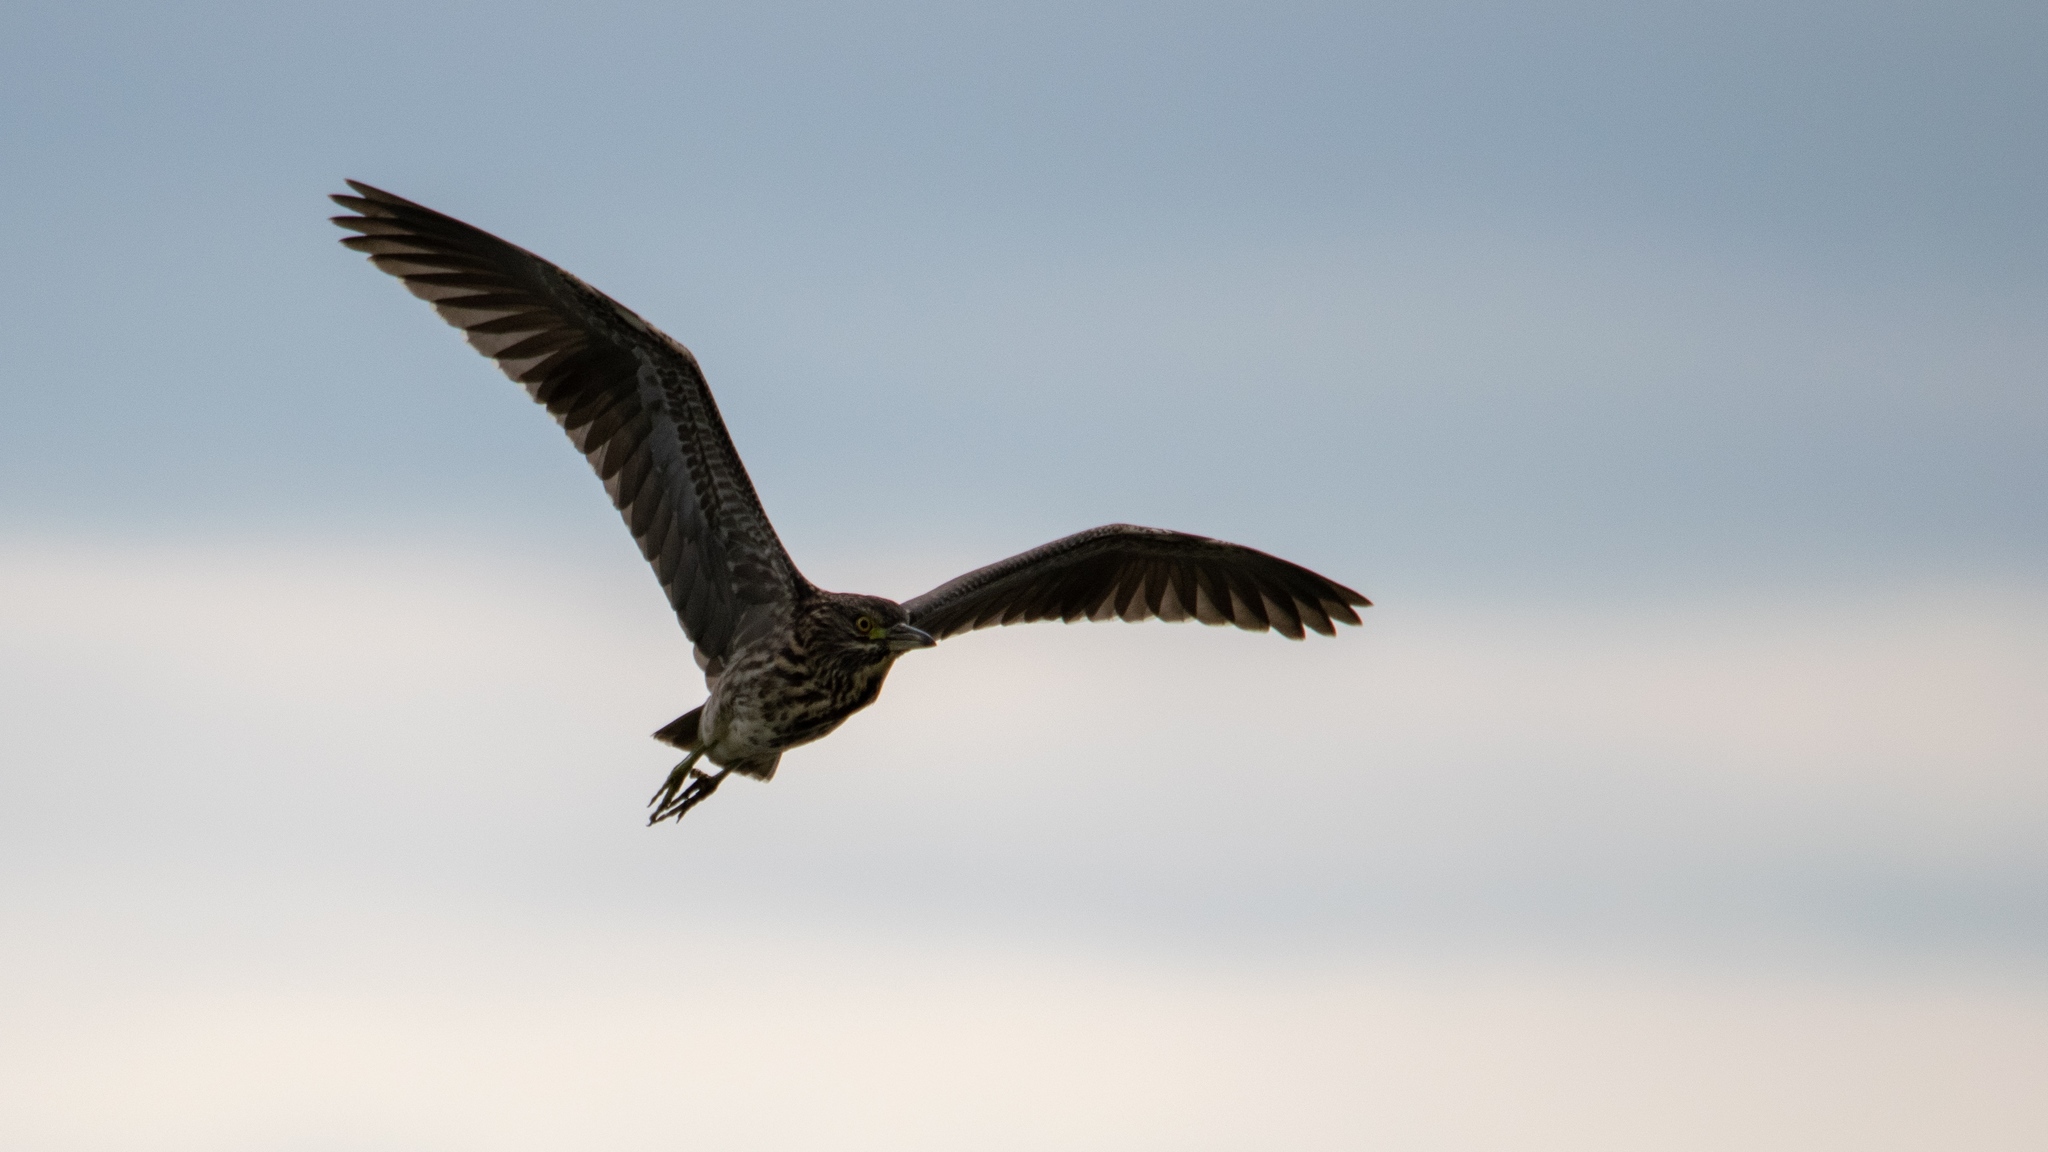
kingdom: Animalia
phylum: Chordata
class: Aves
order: Pelecaniformes
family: Ardeidae
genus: Nycticorax
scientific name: Nycticorax nycticorax
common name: Black-crowned night heron
